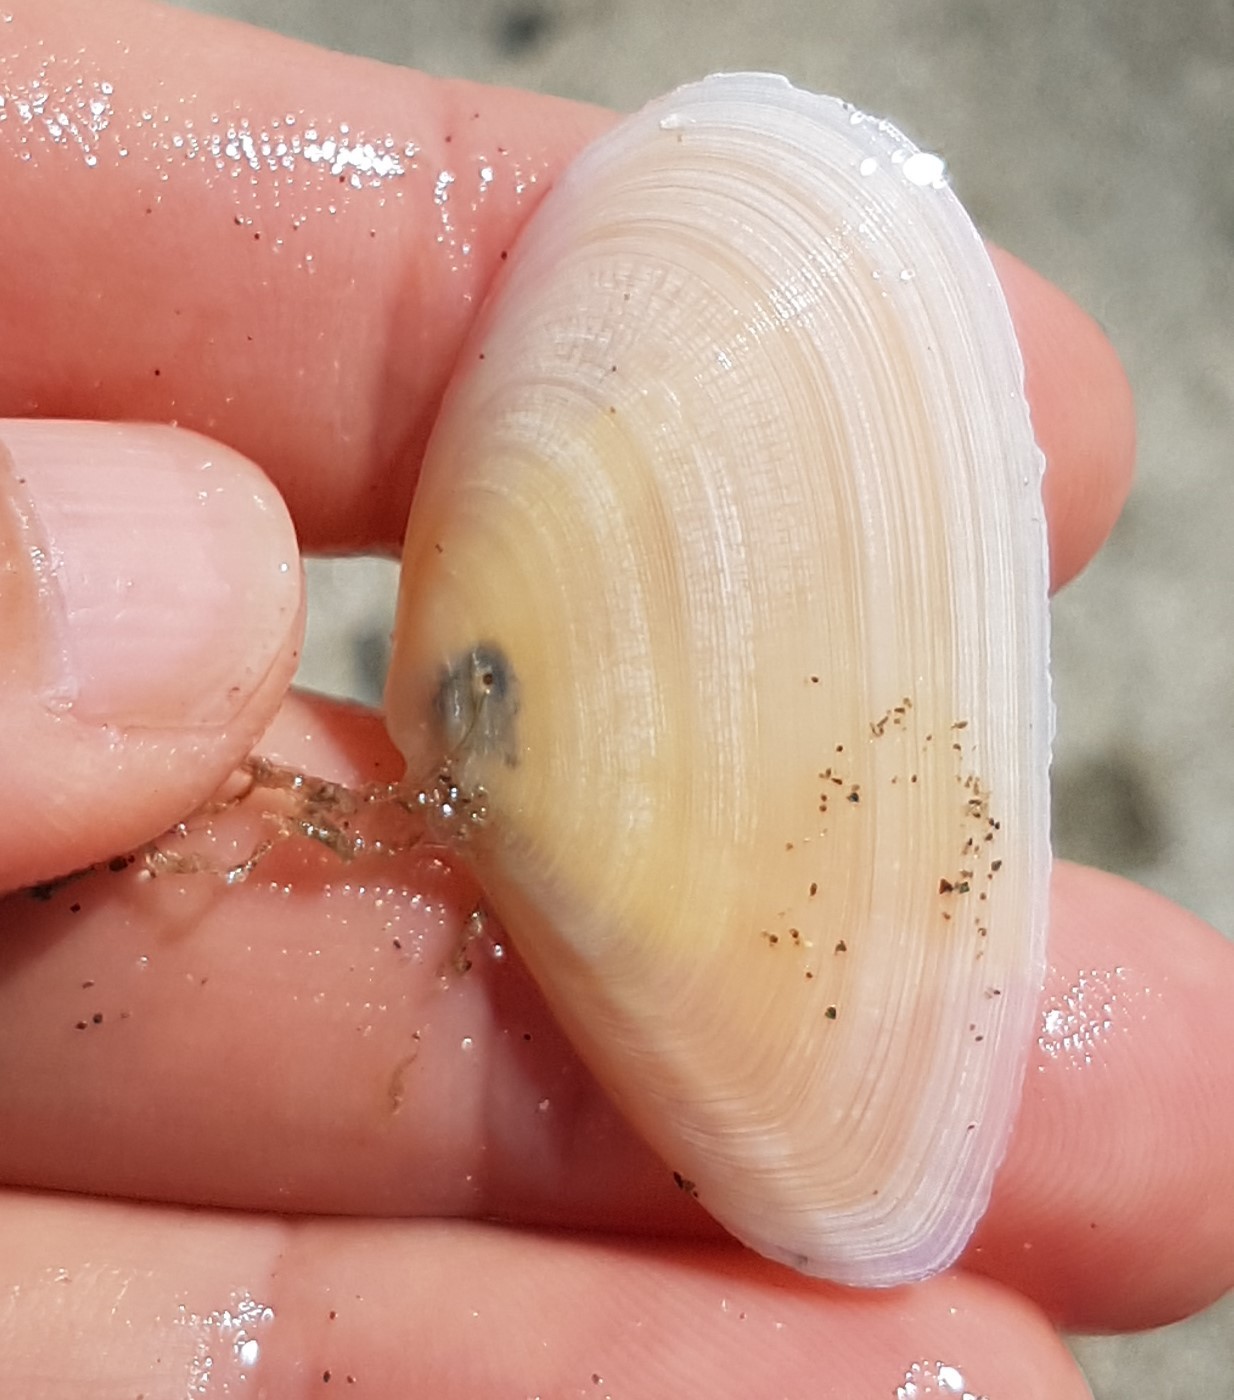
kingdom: Animalia
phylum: Mollusca
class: Bivalvia
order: Cardiida
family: Tellinidae
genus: Peronidia
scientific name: Peronidia albicans
